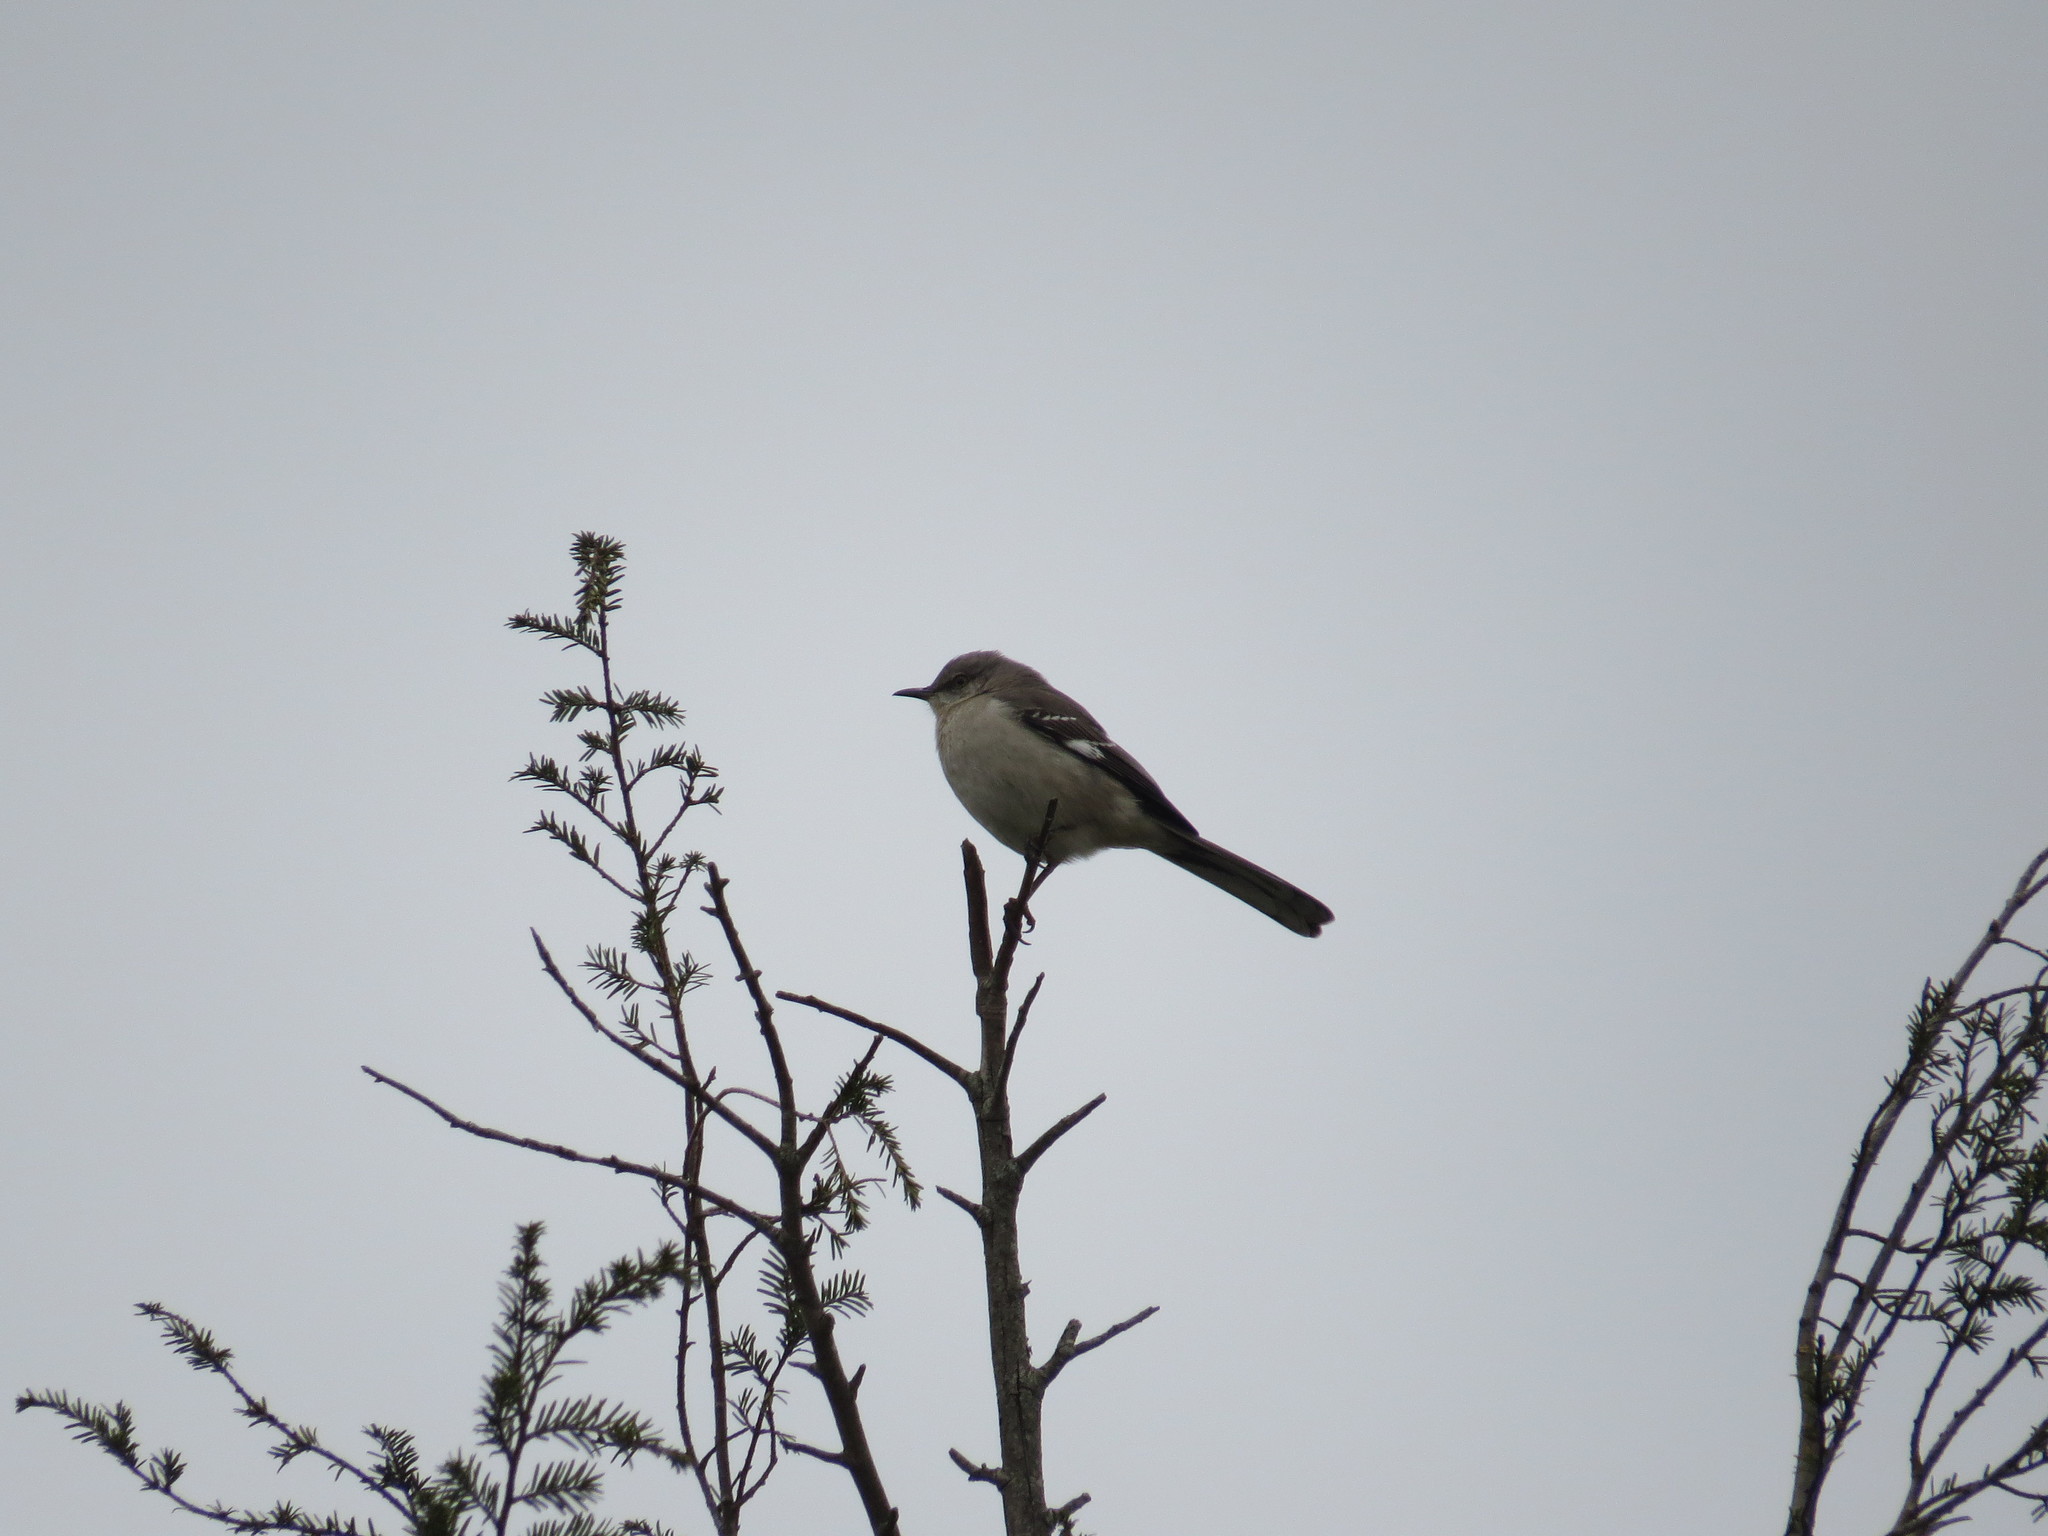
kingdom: Animalia
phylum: Chordata
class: Aves
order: Passeriformes
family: Mimidae
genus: Mimus
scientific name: Mimus polyglottos
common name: Northern mockingbird
